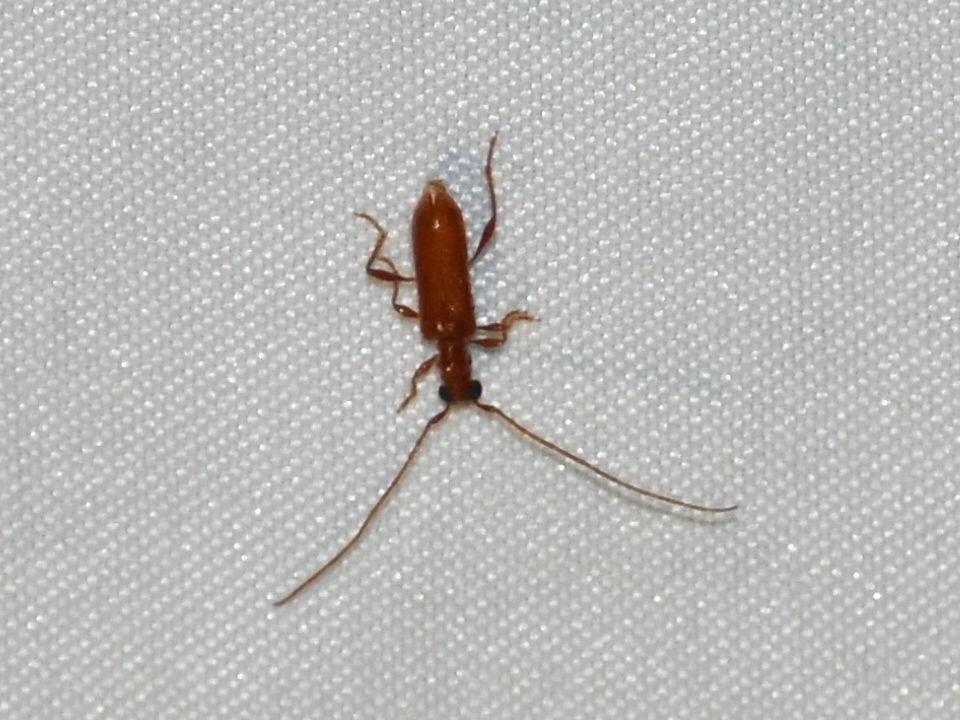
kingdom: Animalia
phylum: Arthropoda
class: Insecta
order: Coleoptera
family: Cerambycidae
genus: Obrium
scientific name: Obrium rufulum
